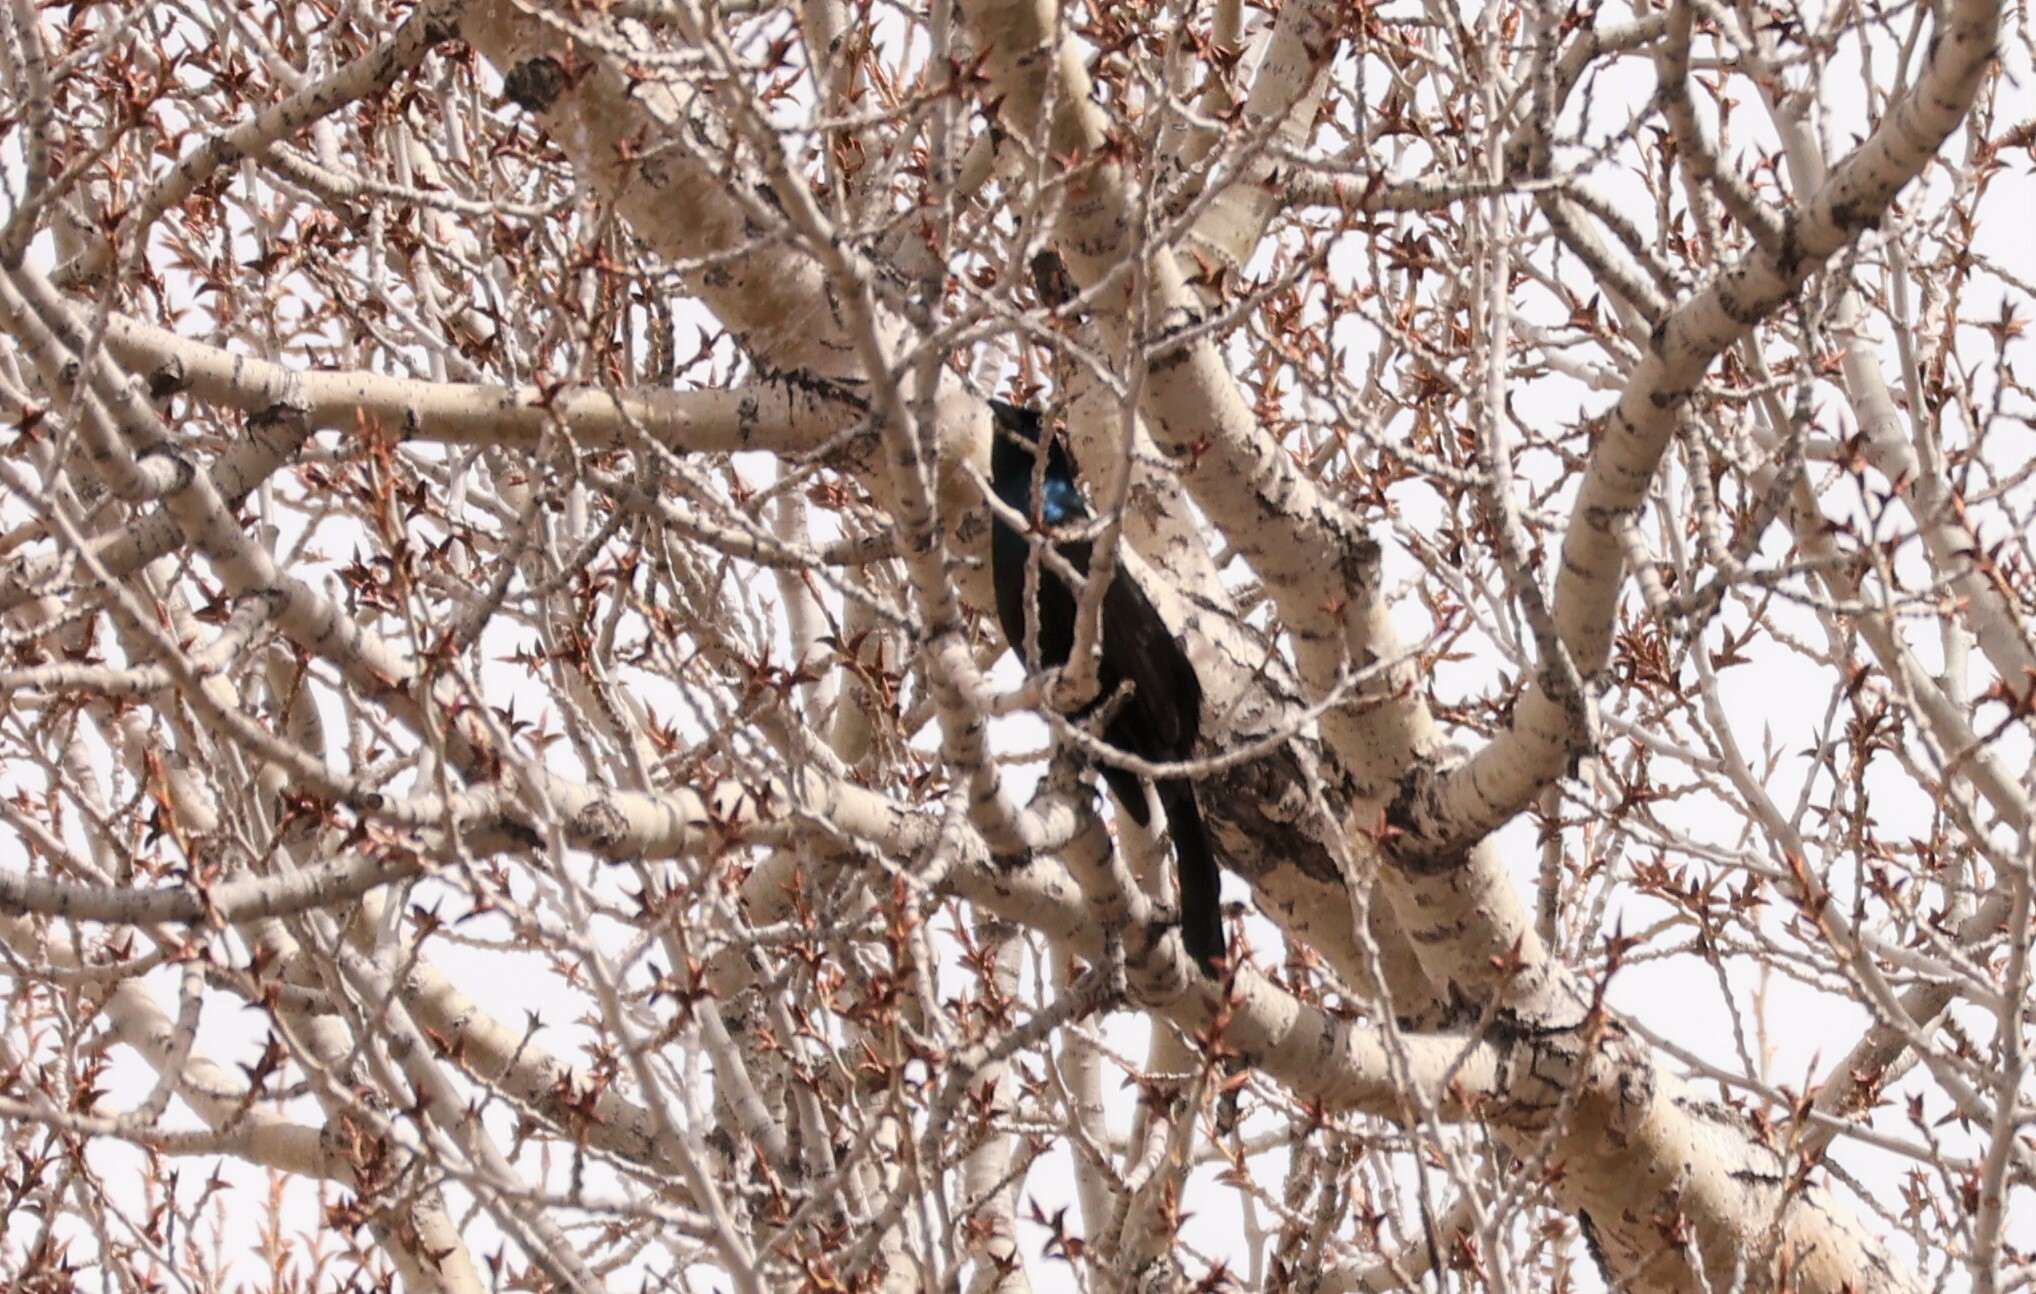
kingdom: Animalia
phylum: Chordata
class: Aves
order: Passeriformes
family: Icteridae
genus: Quiscalus
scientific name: Quiscalus quiscula
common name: Common grackle
